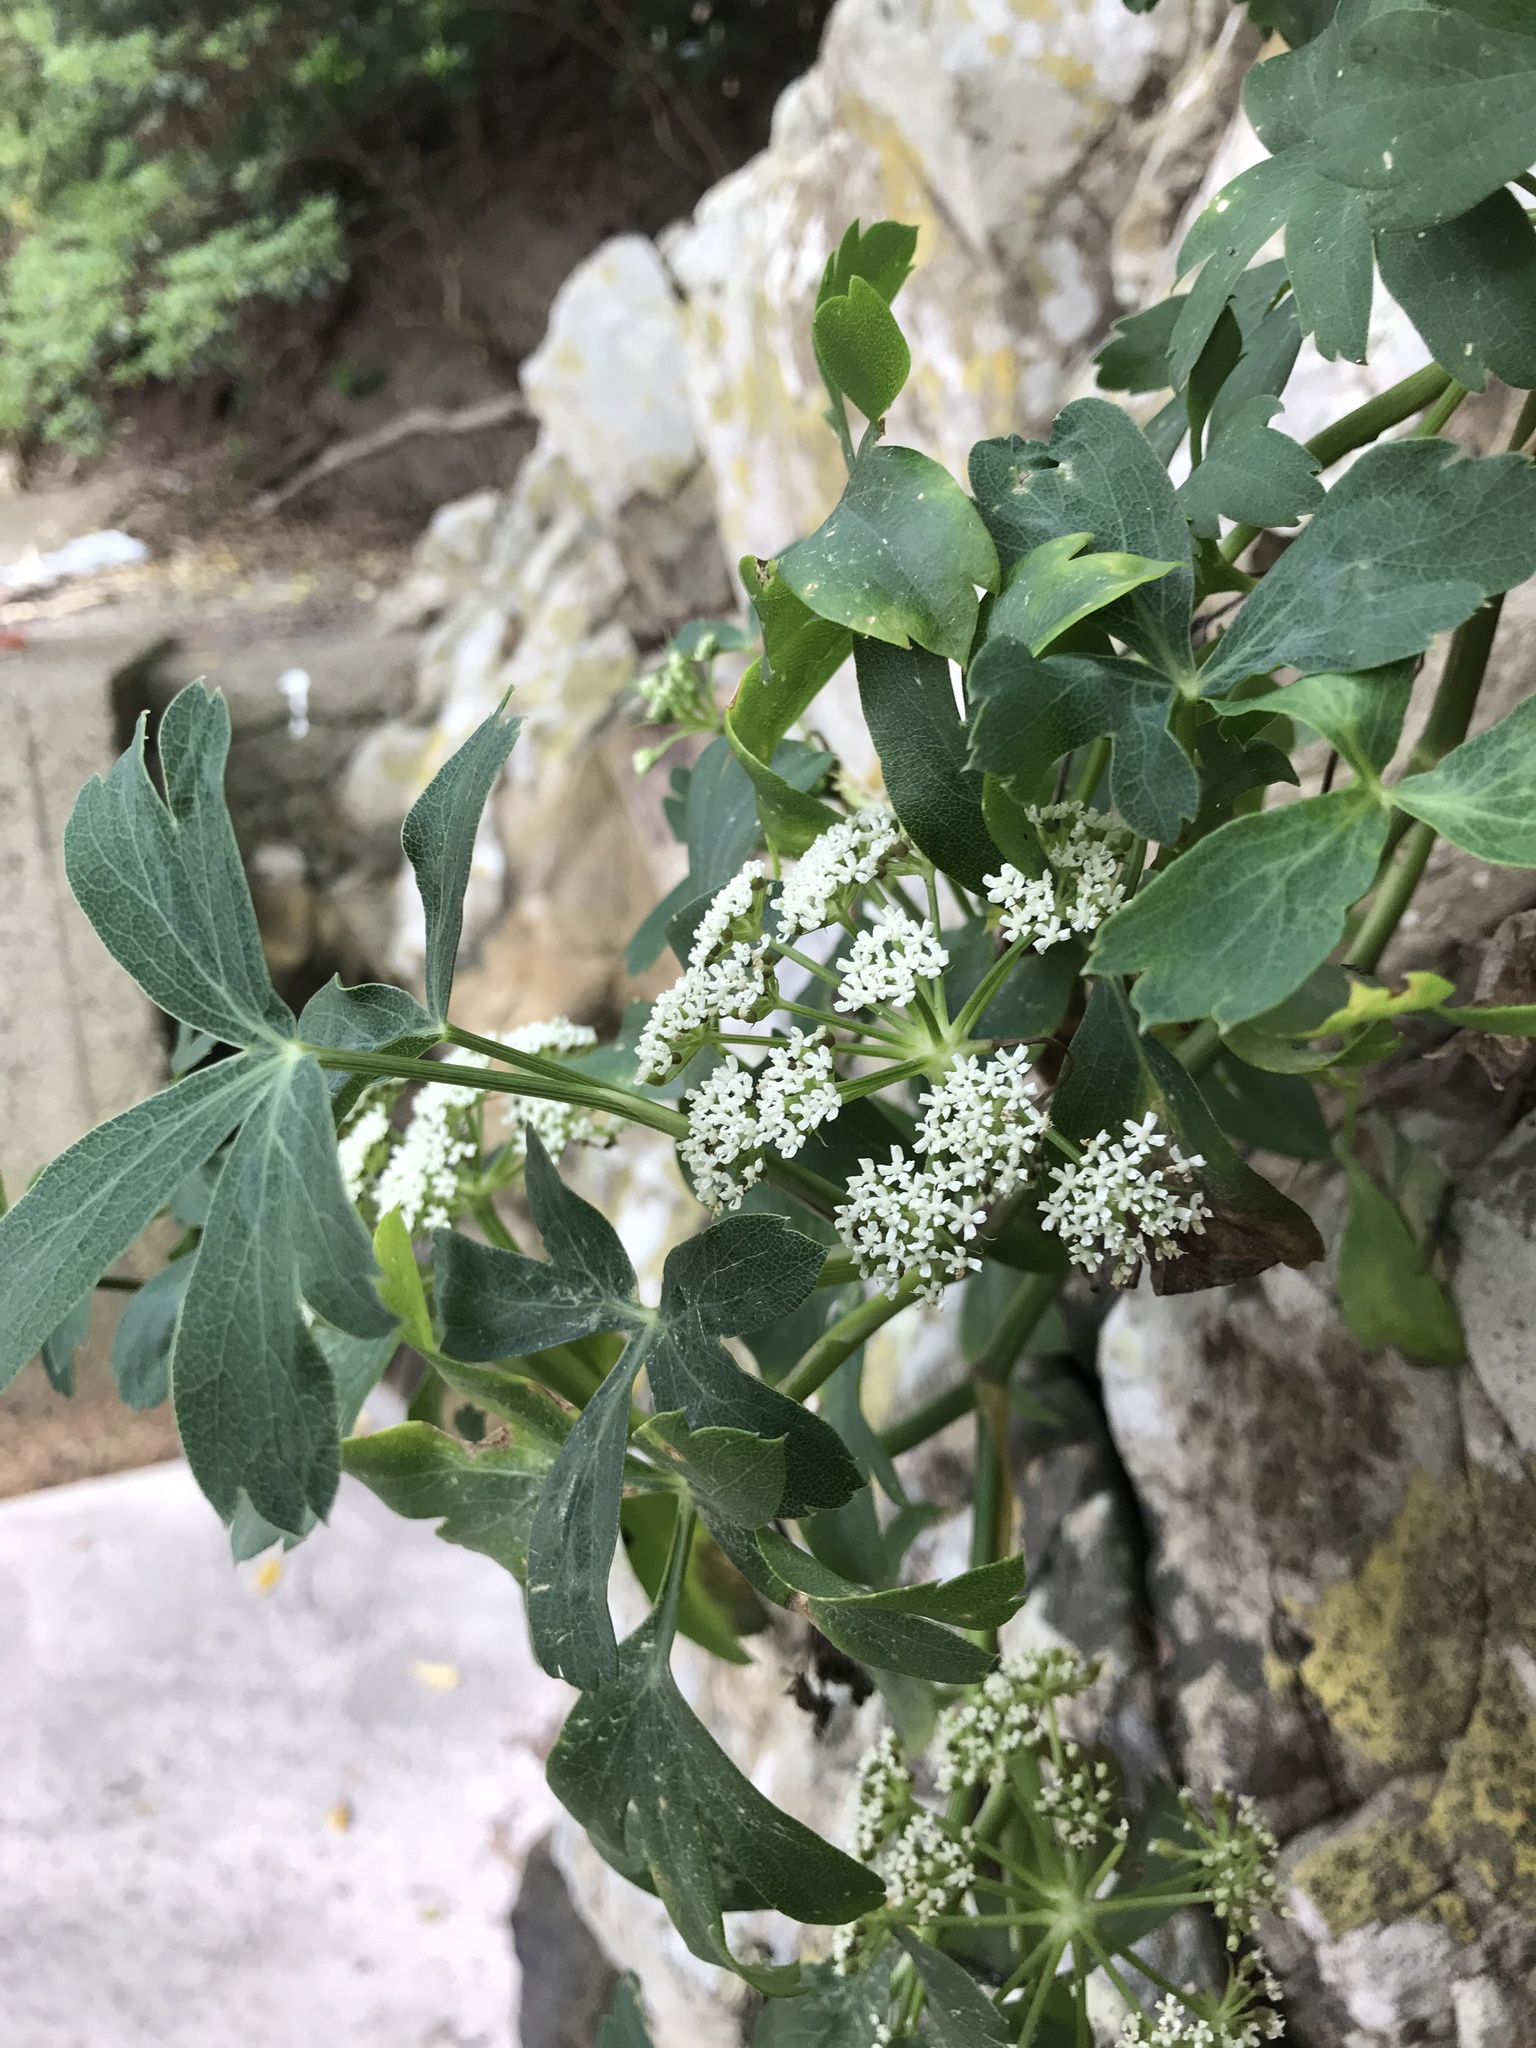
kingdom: Plantae
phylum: Tracheophyta
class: Magnoliopsida
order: Apiales
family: Apiaceae
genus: Peucedanum
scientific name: Peucedanum japonicum
